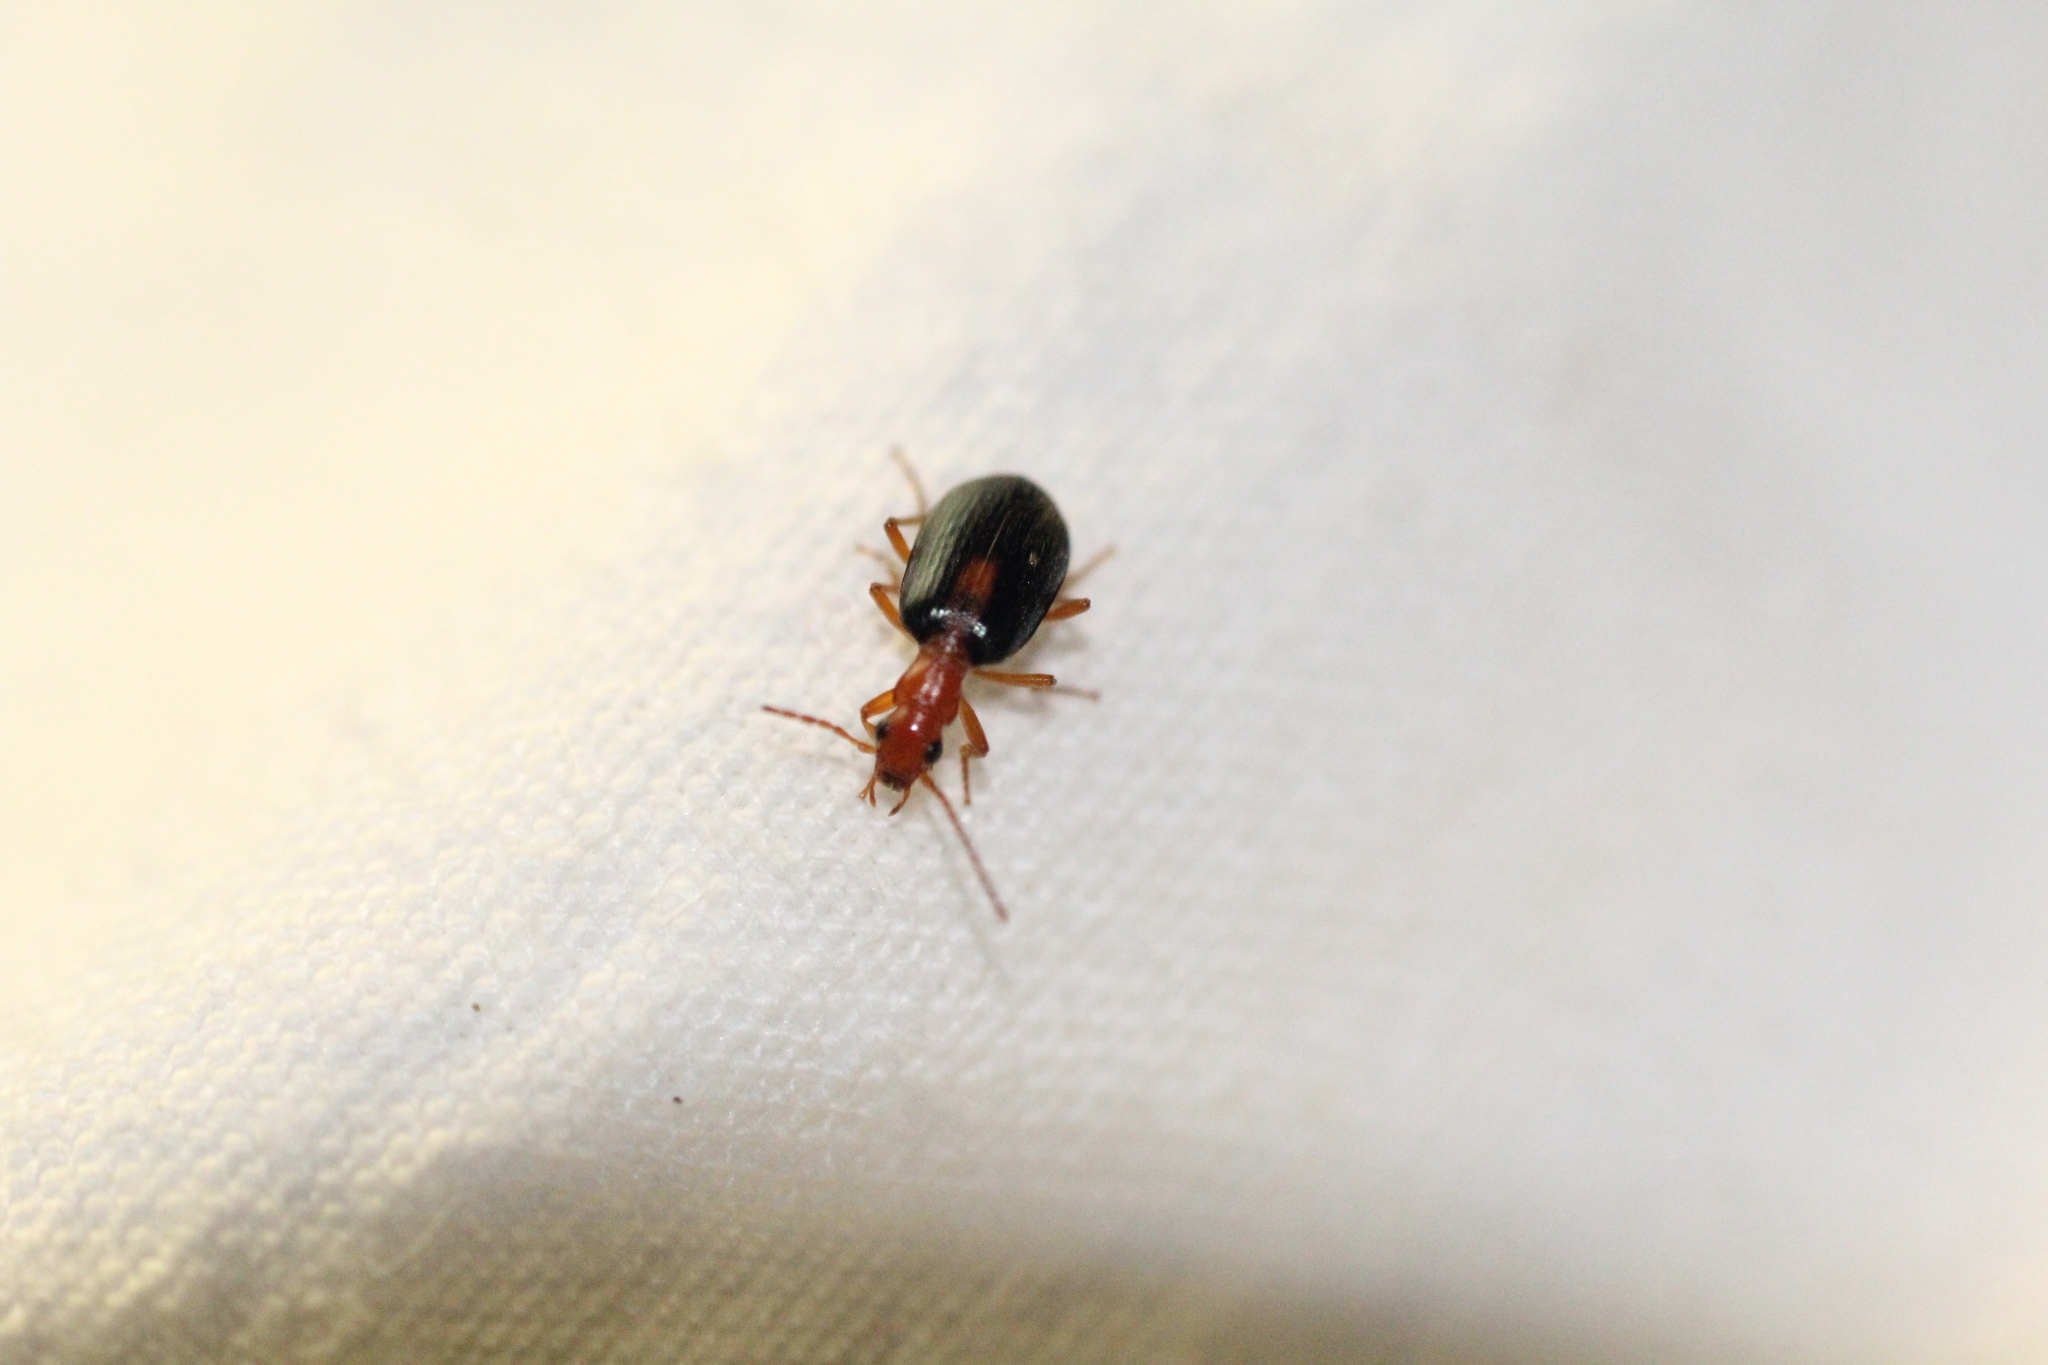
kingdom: Animalia
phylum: Arthropoda
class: Insecta
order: Coleoptera
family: Carabidae
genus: Brachinus
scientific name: Brachinus sclopeta
